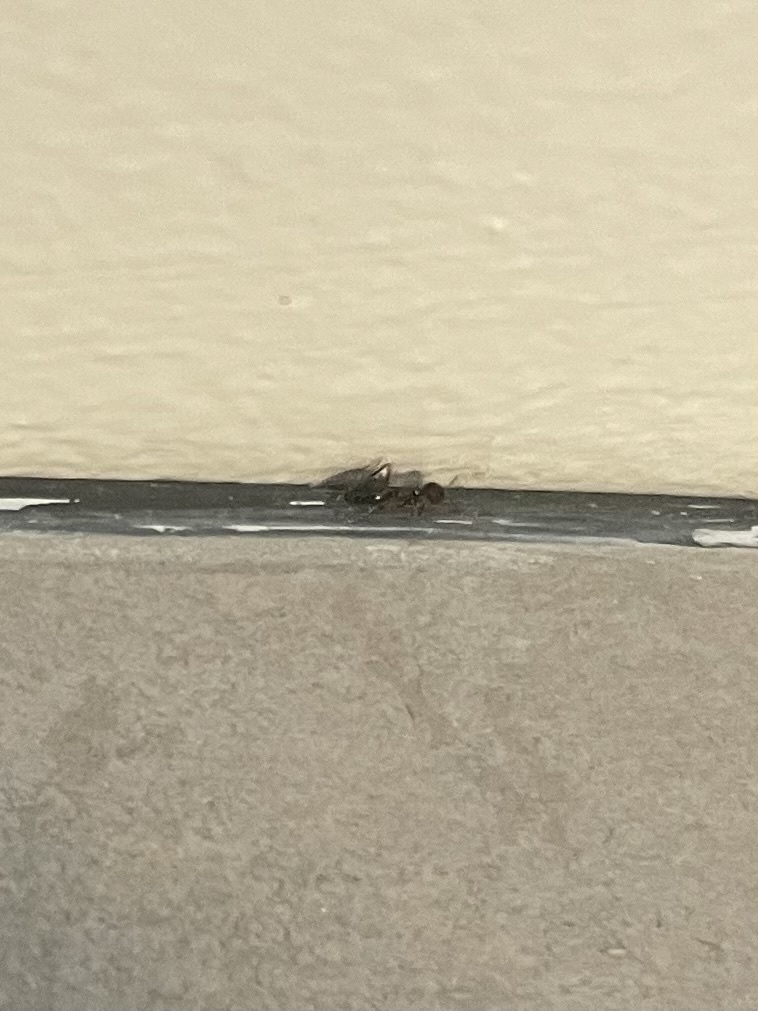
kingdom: Animalia
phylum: Arthropoda
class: Insecta
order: Hymenoptera
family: Formicidae
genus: Prenolepis
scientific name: Prenolepis imparis
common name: Small honey ant
